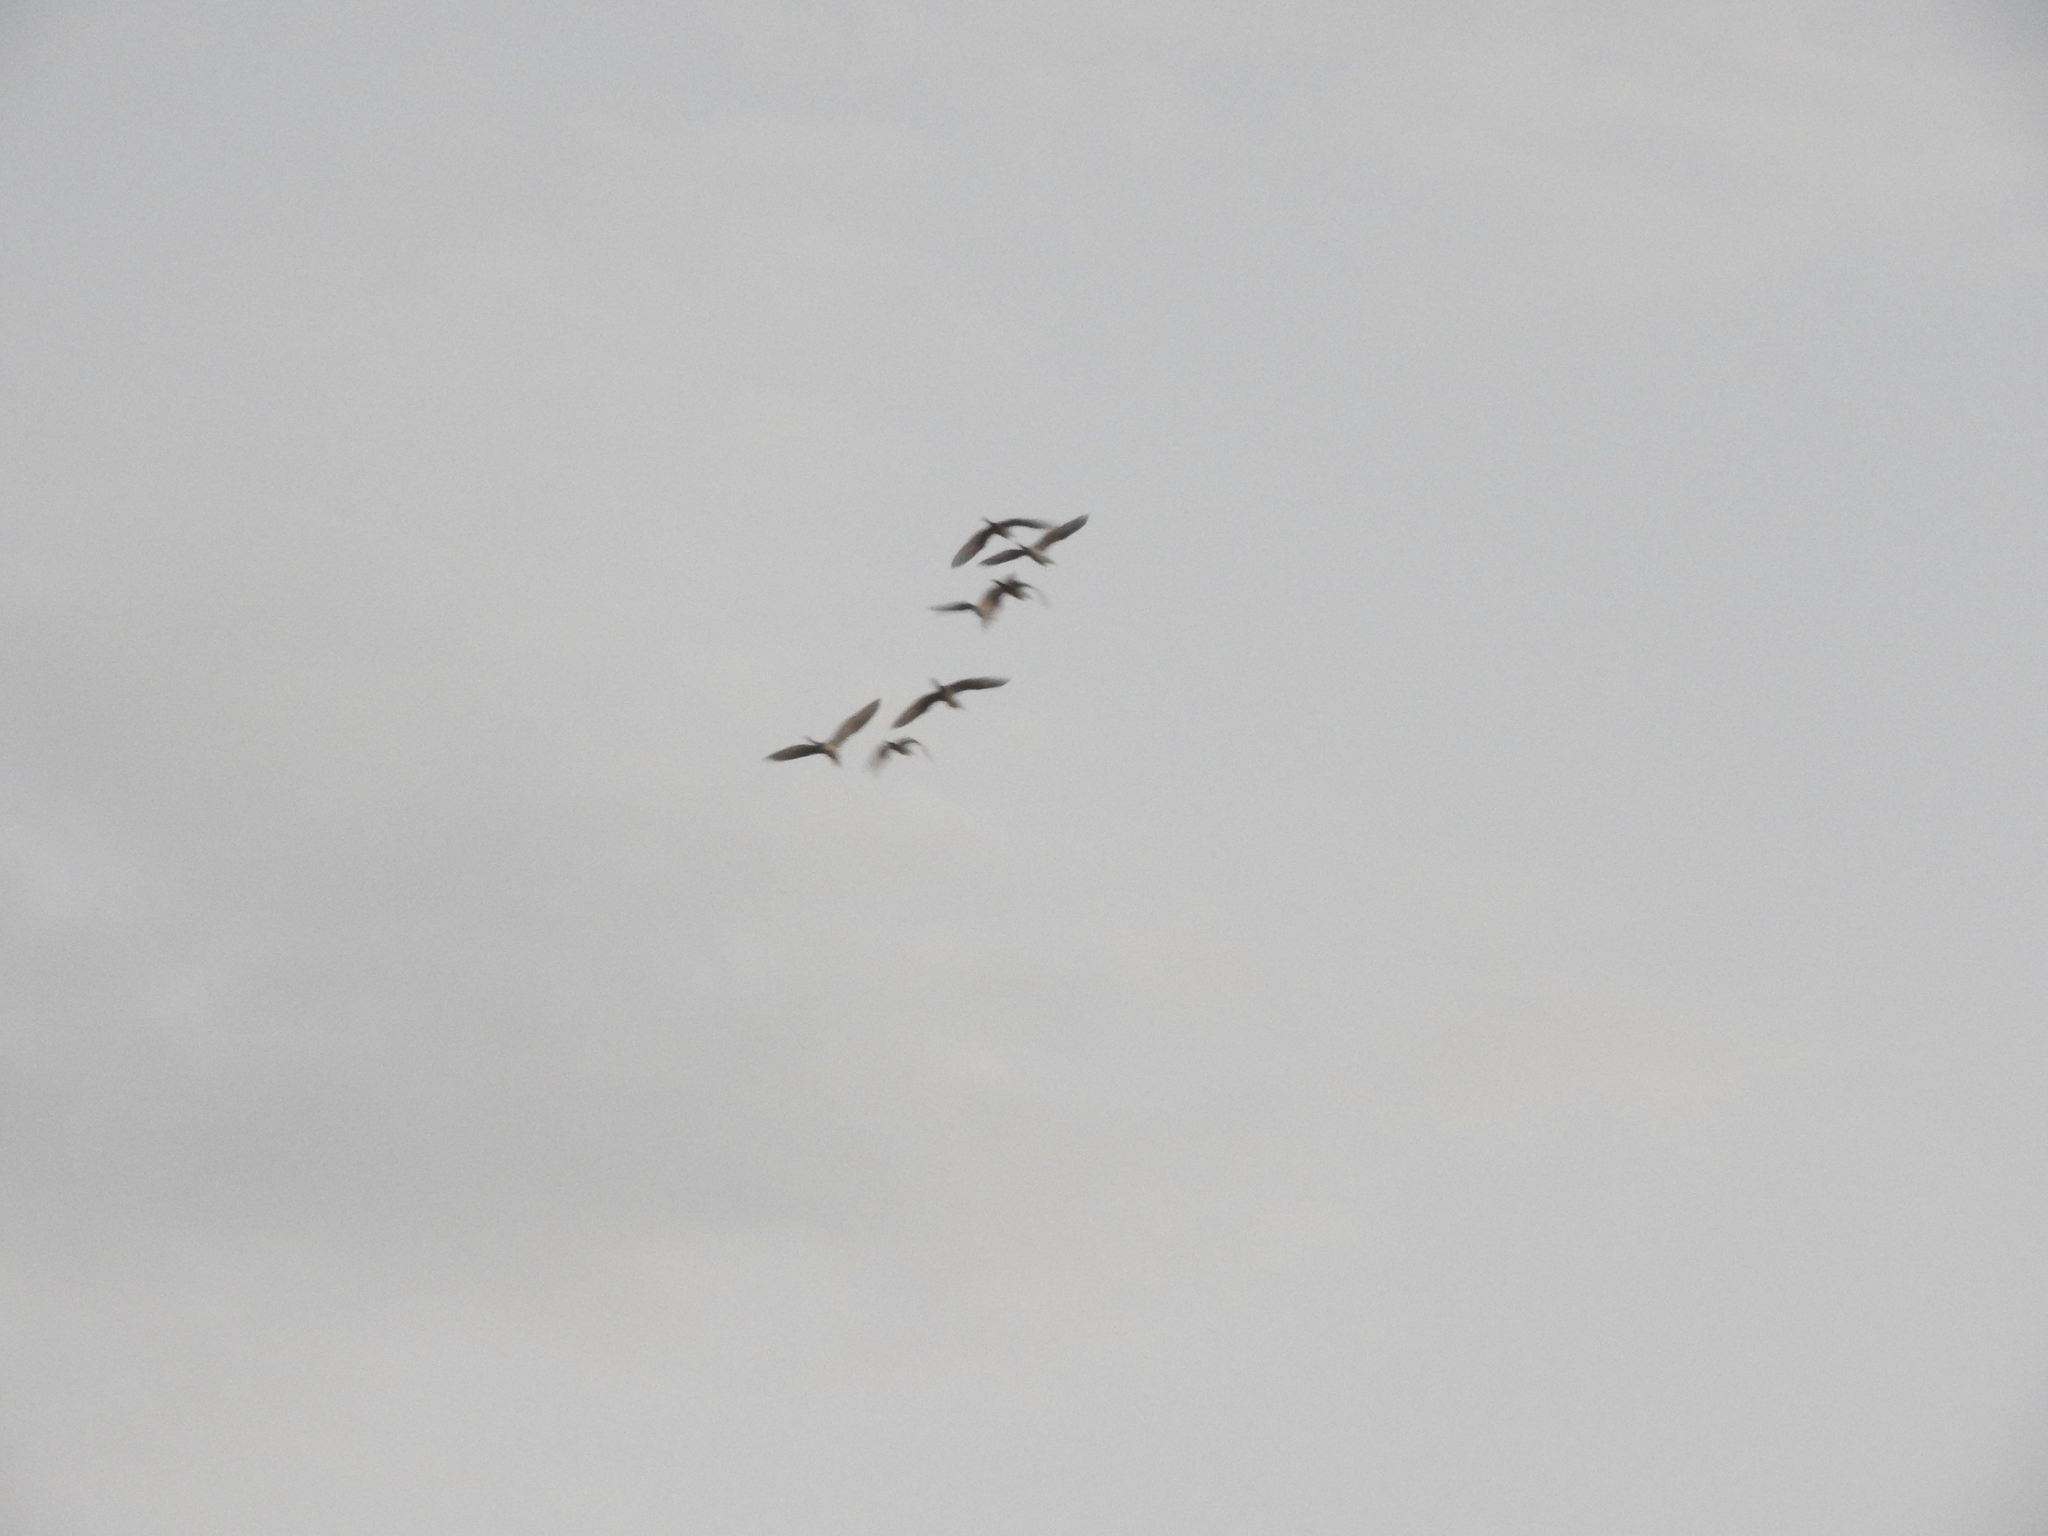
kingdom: Animalia
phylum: Chordata
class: Aves
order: Pelecaniformes
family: Ardeidae
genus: Bubulcus
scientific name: Bubulcus ibis
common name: Cattle egret
